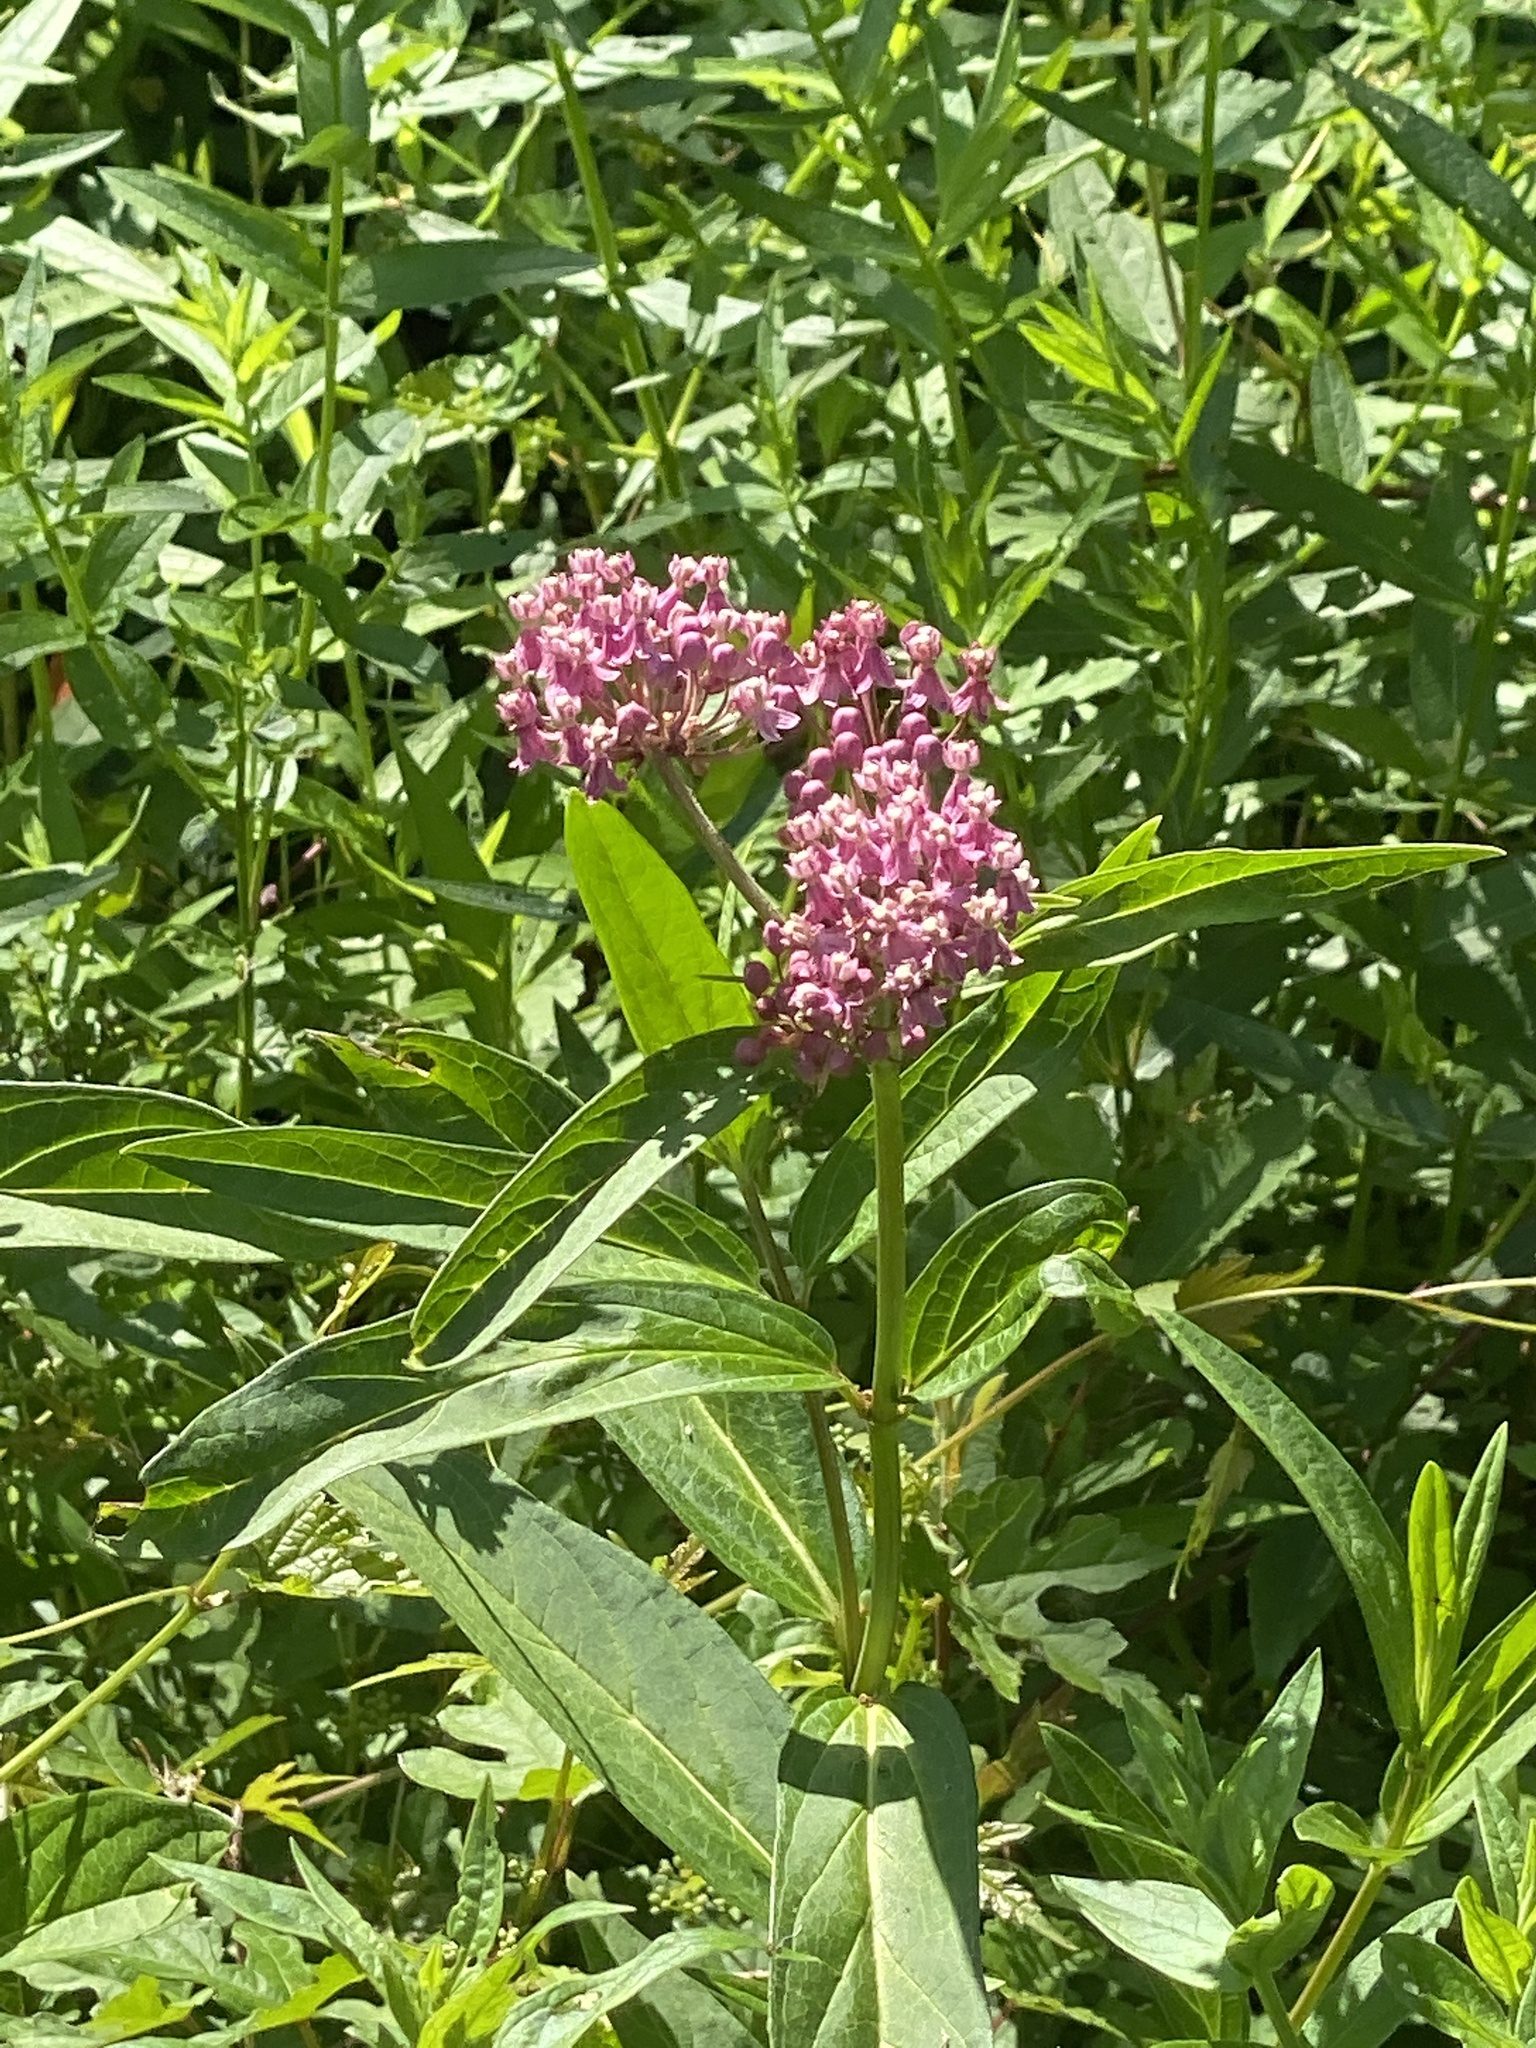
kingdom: Plantae
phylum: Tracheophyta
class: Magnoliopsida
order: Gentianales
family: Apocynaceae
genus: Asclepias
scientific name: Asclepias incarnata
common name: Swamp milkweed
